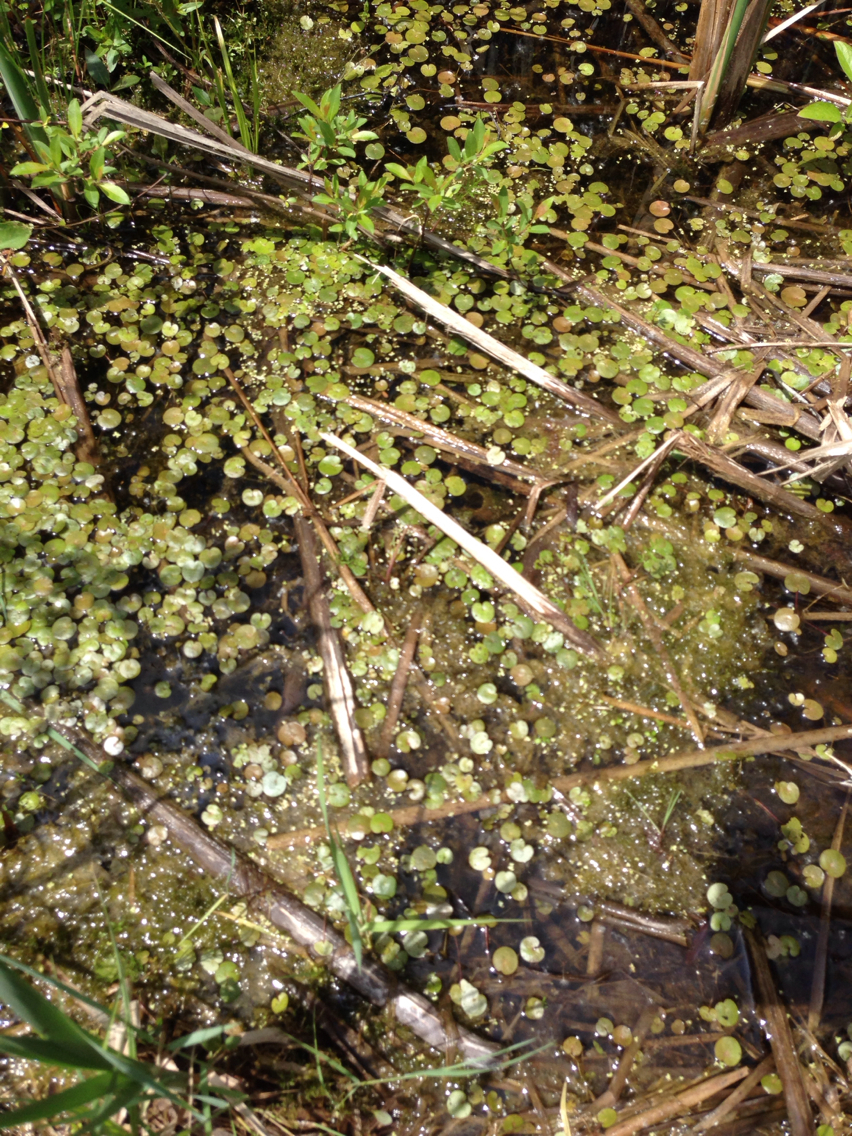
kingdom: Plantae
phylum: Tracheophyta
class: Liliopsida
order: Alismatales
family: Hydrocharitaceae
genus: Hydrocharis
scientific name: Hydrocharis morsus-ranae
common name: Frogbit
